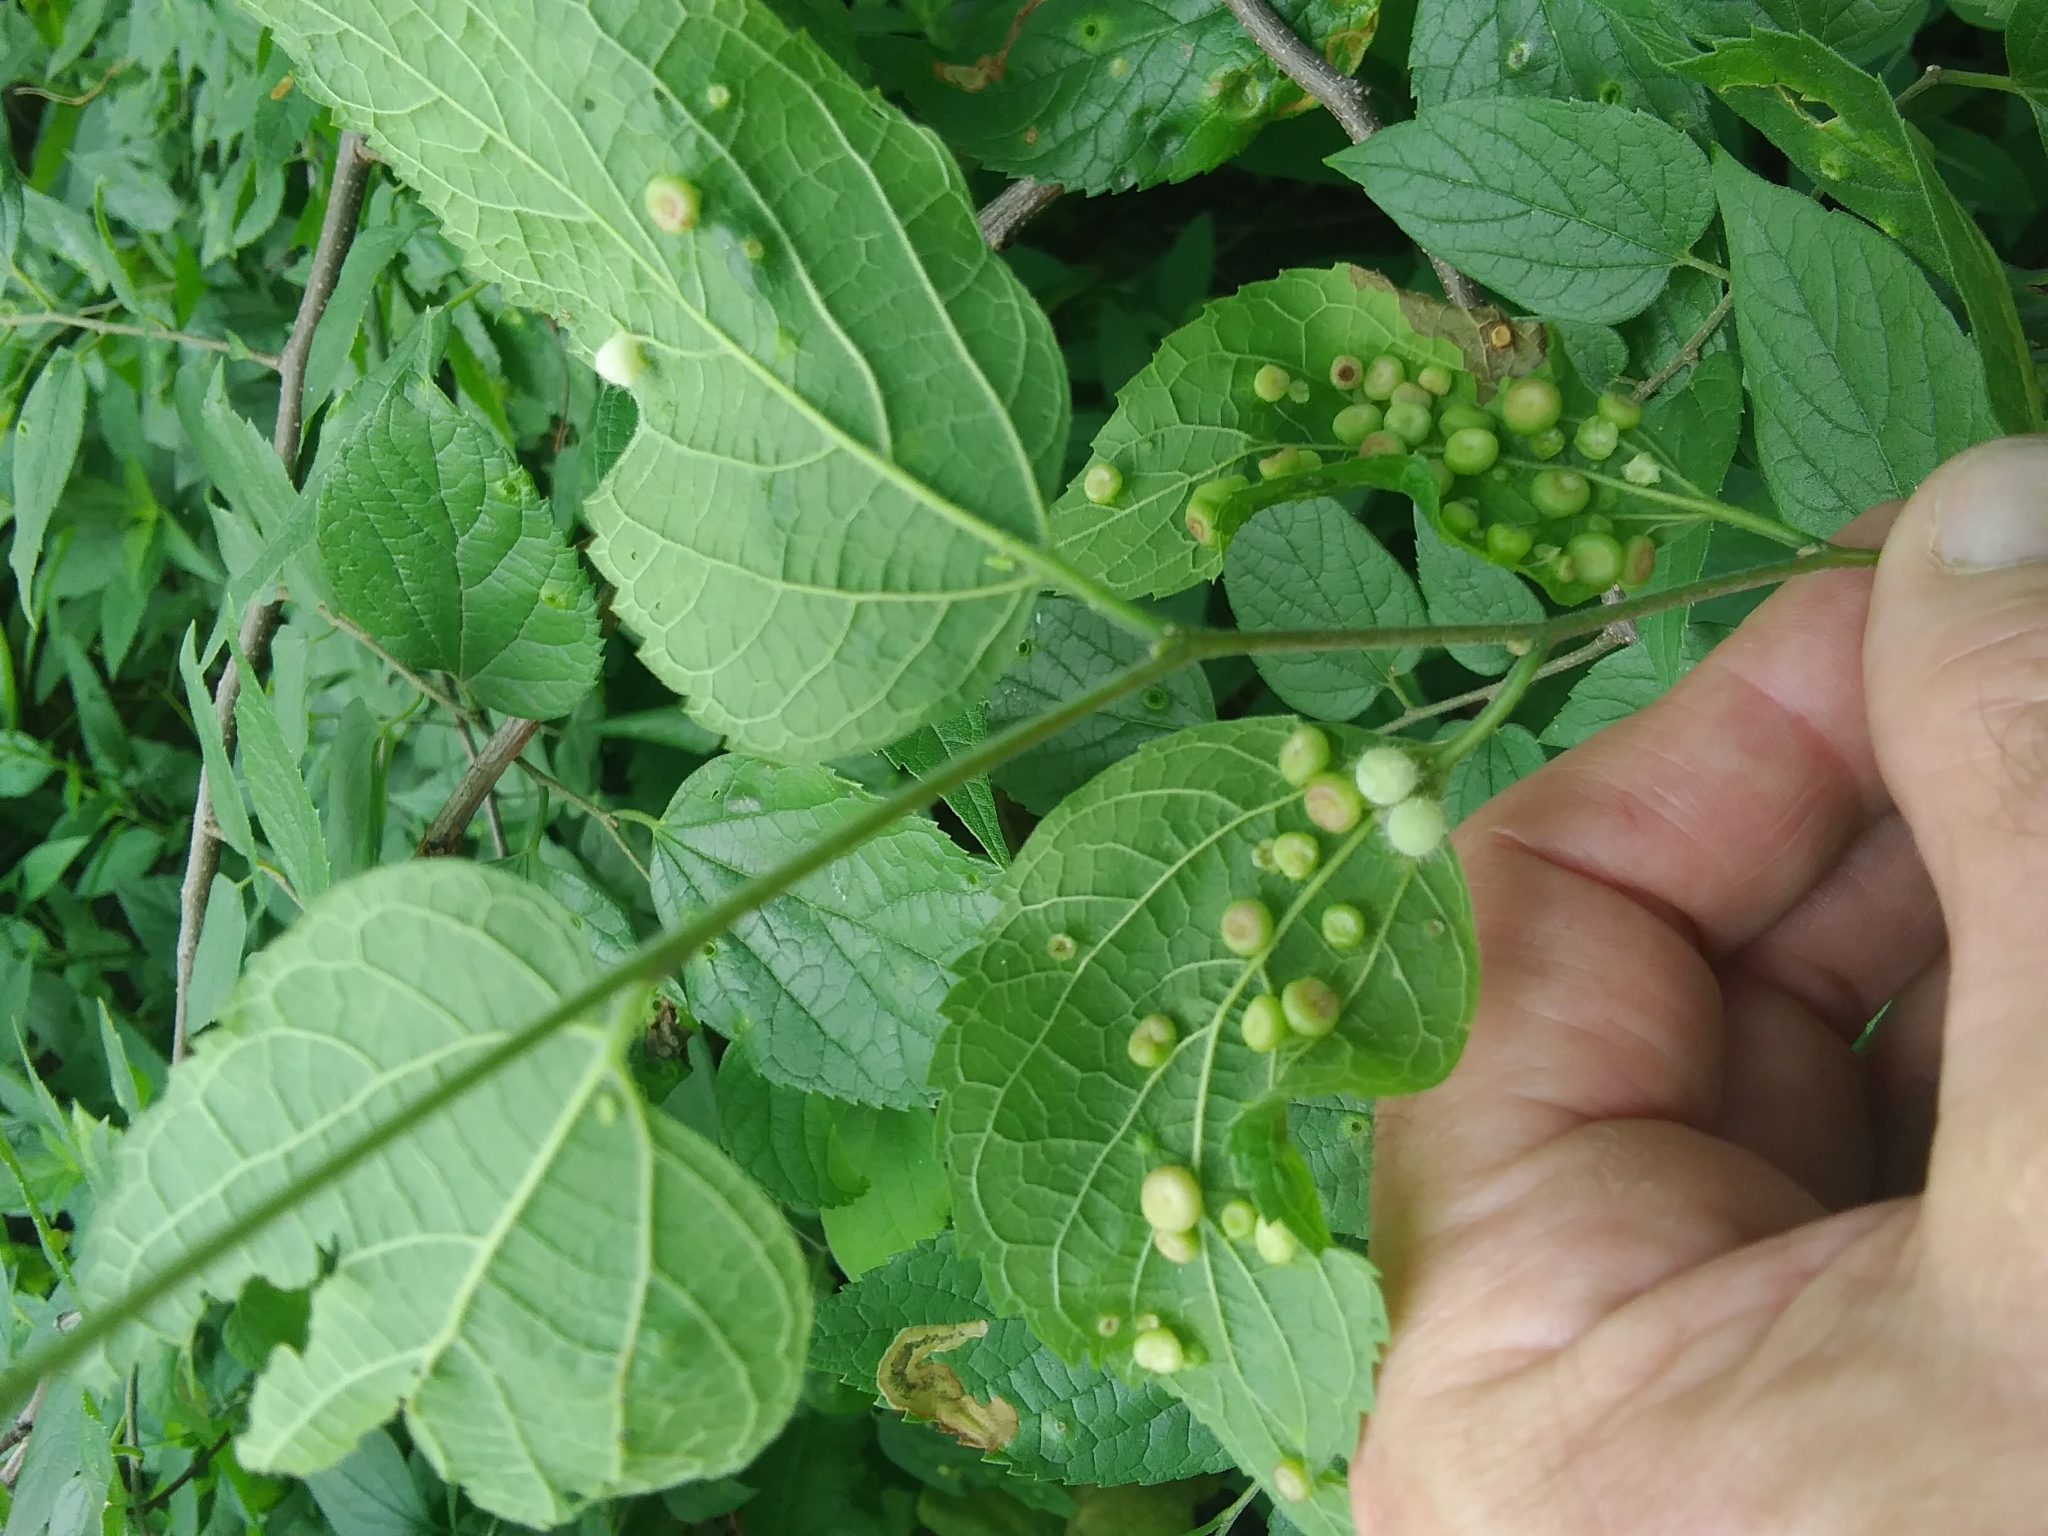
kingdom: Animalia
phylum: Arthropoda
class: Insecta
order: Hemiptera
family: Aphalaridae
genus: Pachypsylla
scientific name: Pachypsylla celtidisasterisca
